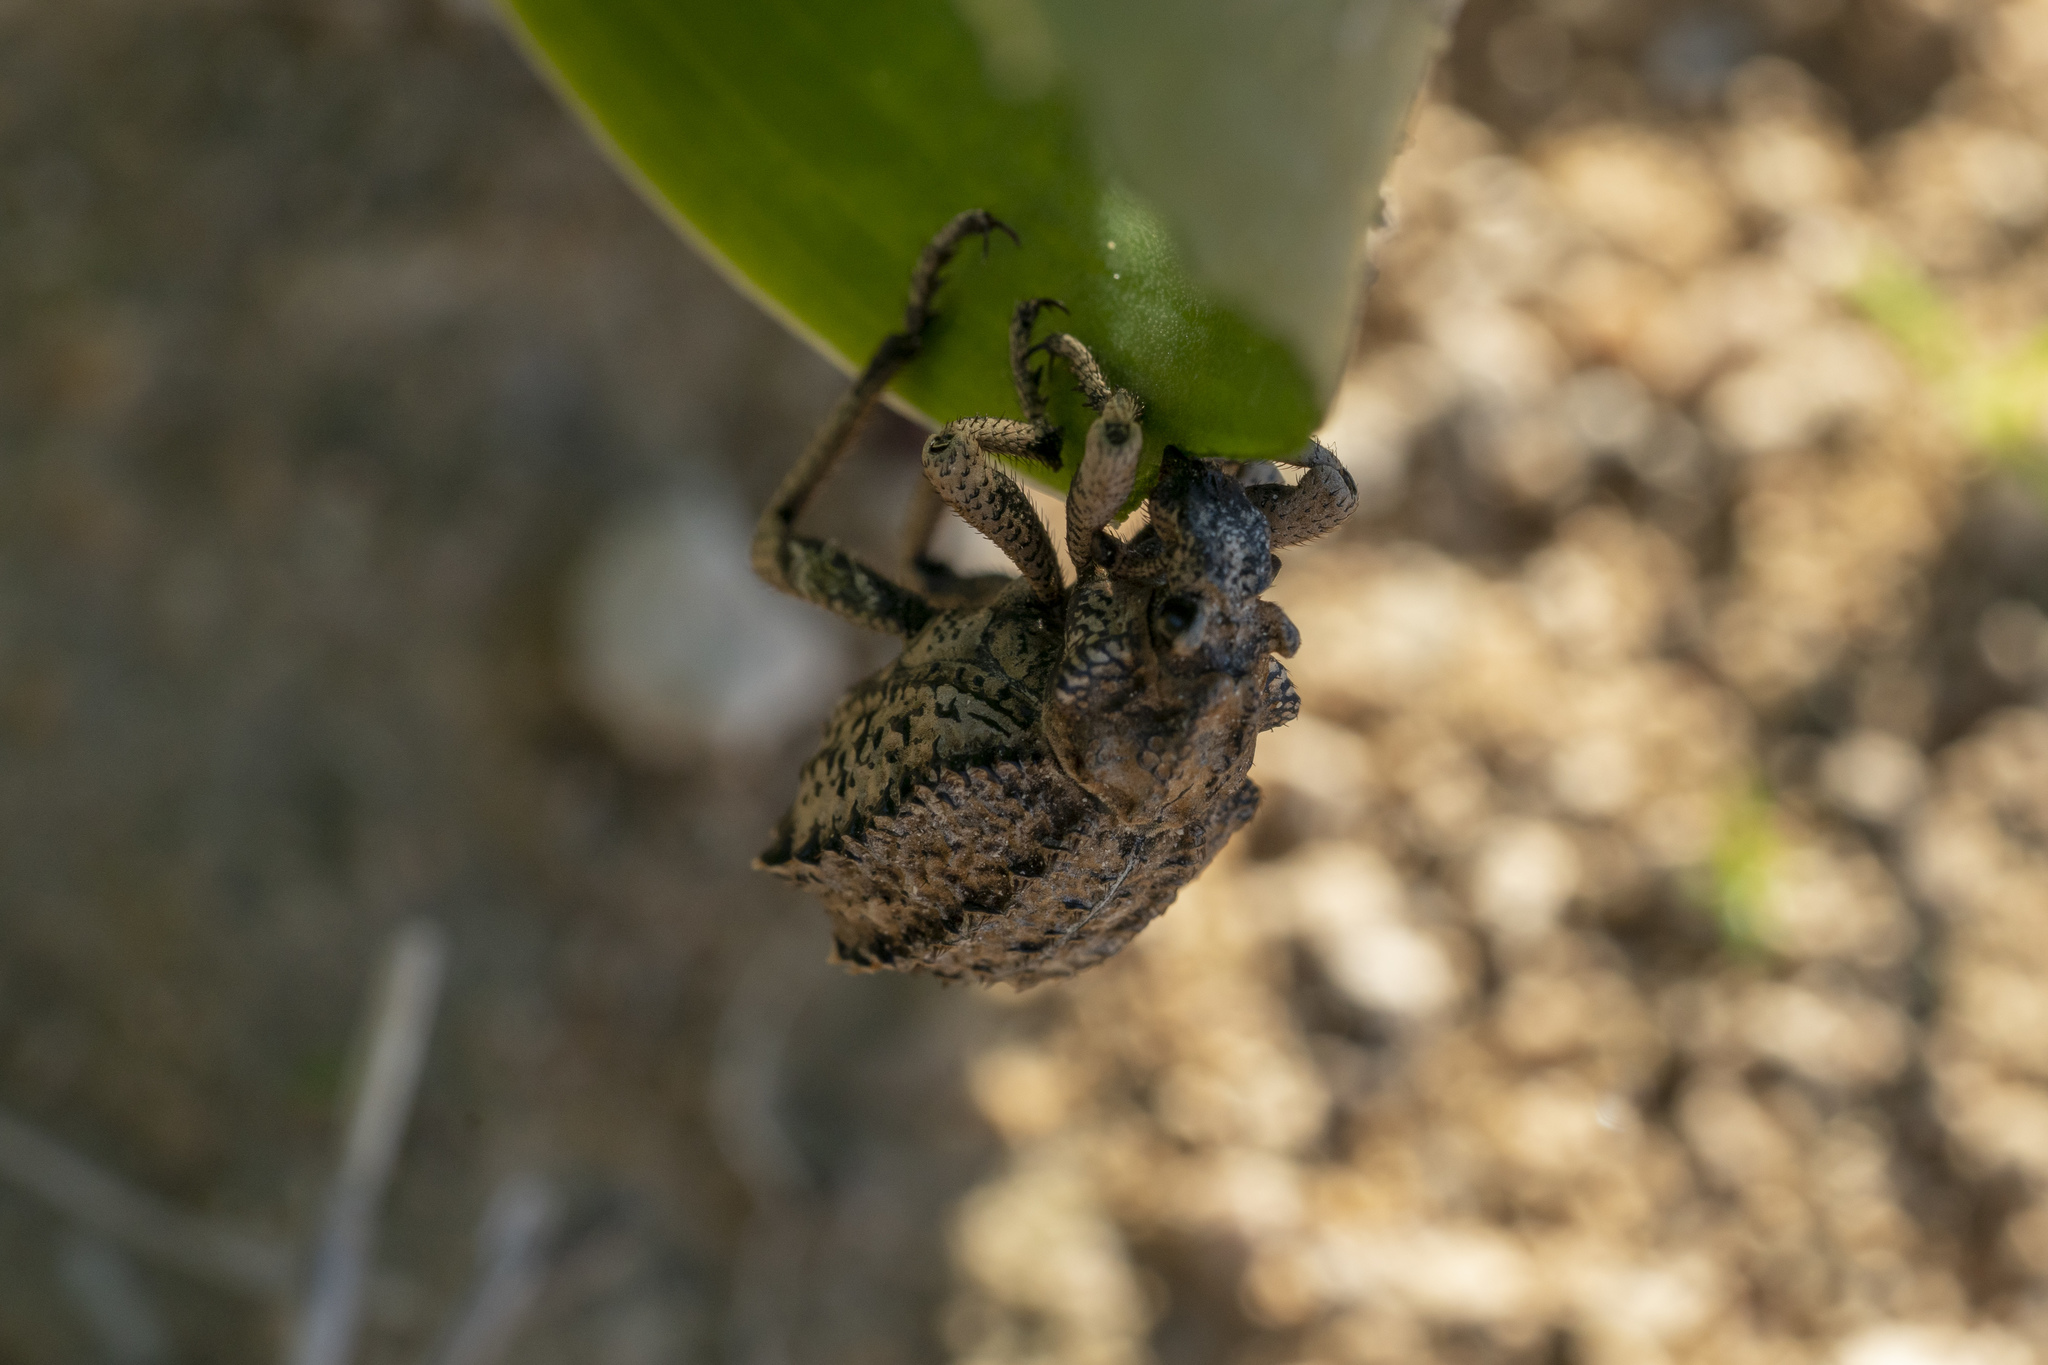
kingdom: Animalia
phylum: Arthropoda
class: Insecta
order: Coleoptera
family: Brachyceridae
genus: Brachycerus
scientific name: Brachycerus plicatus
